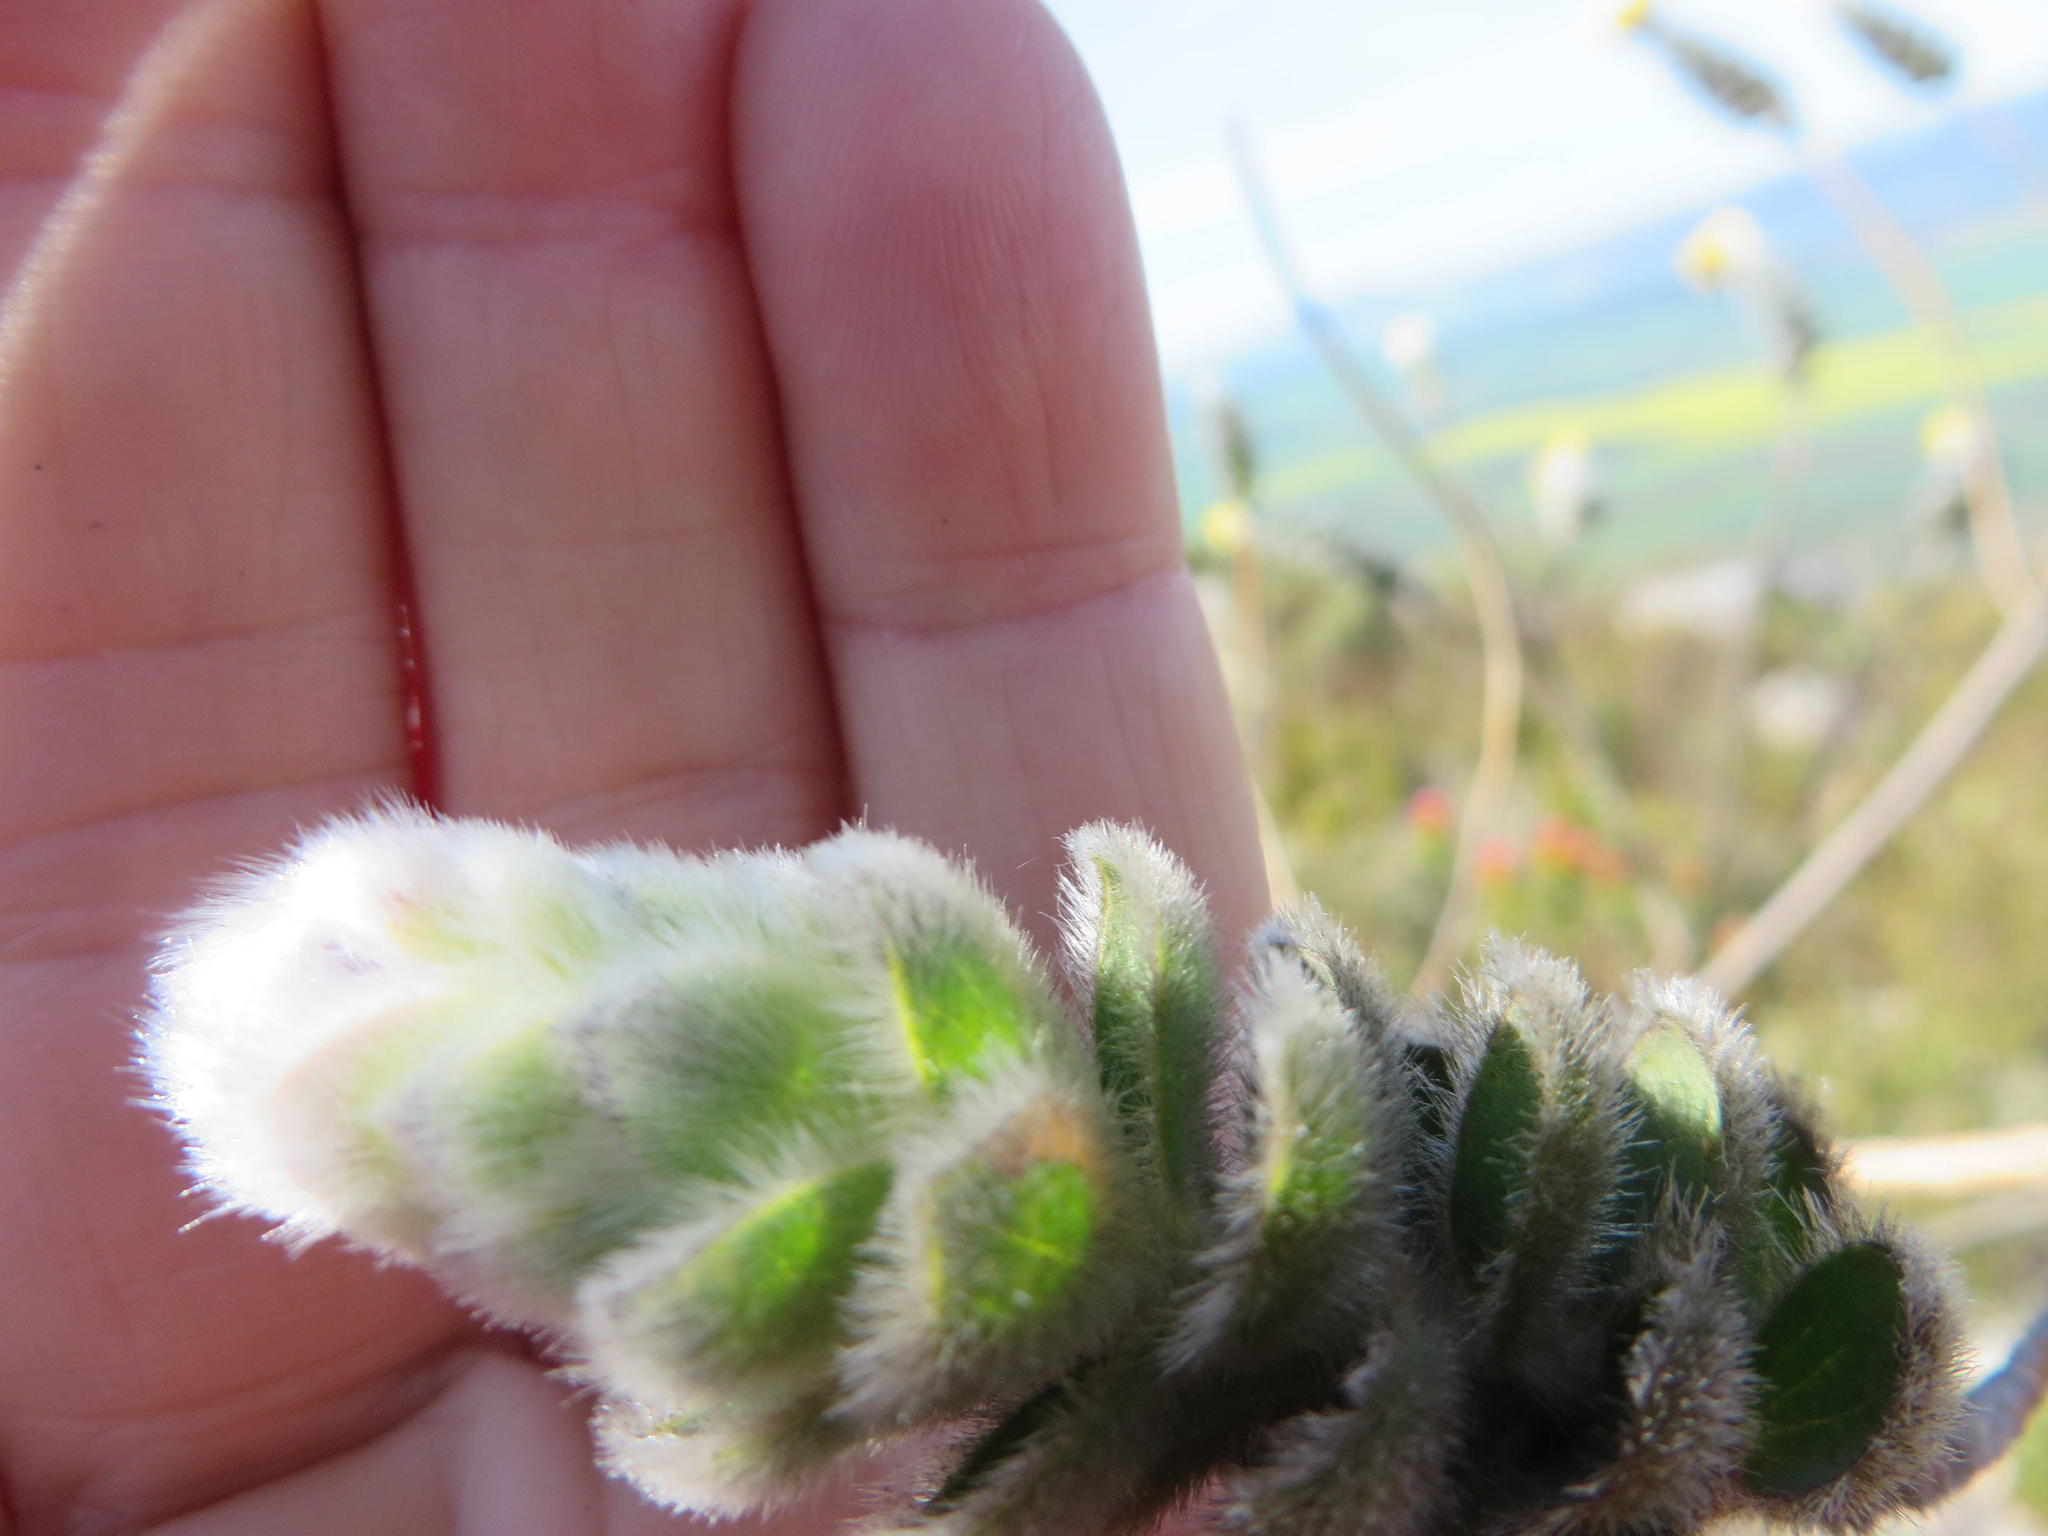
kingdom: Plantae
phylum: Tracheophyta
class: Magnoliopsida
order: Fabales
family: Fabaceae
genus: Liparia
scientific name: Liparia vestita
